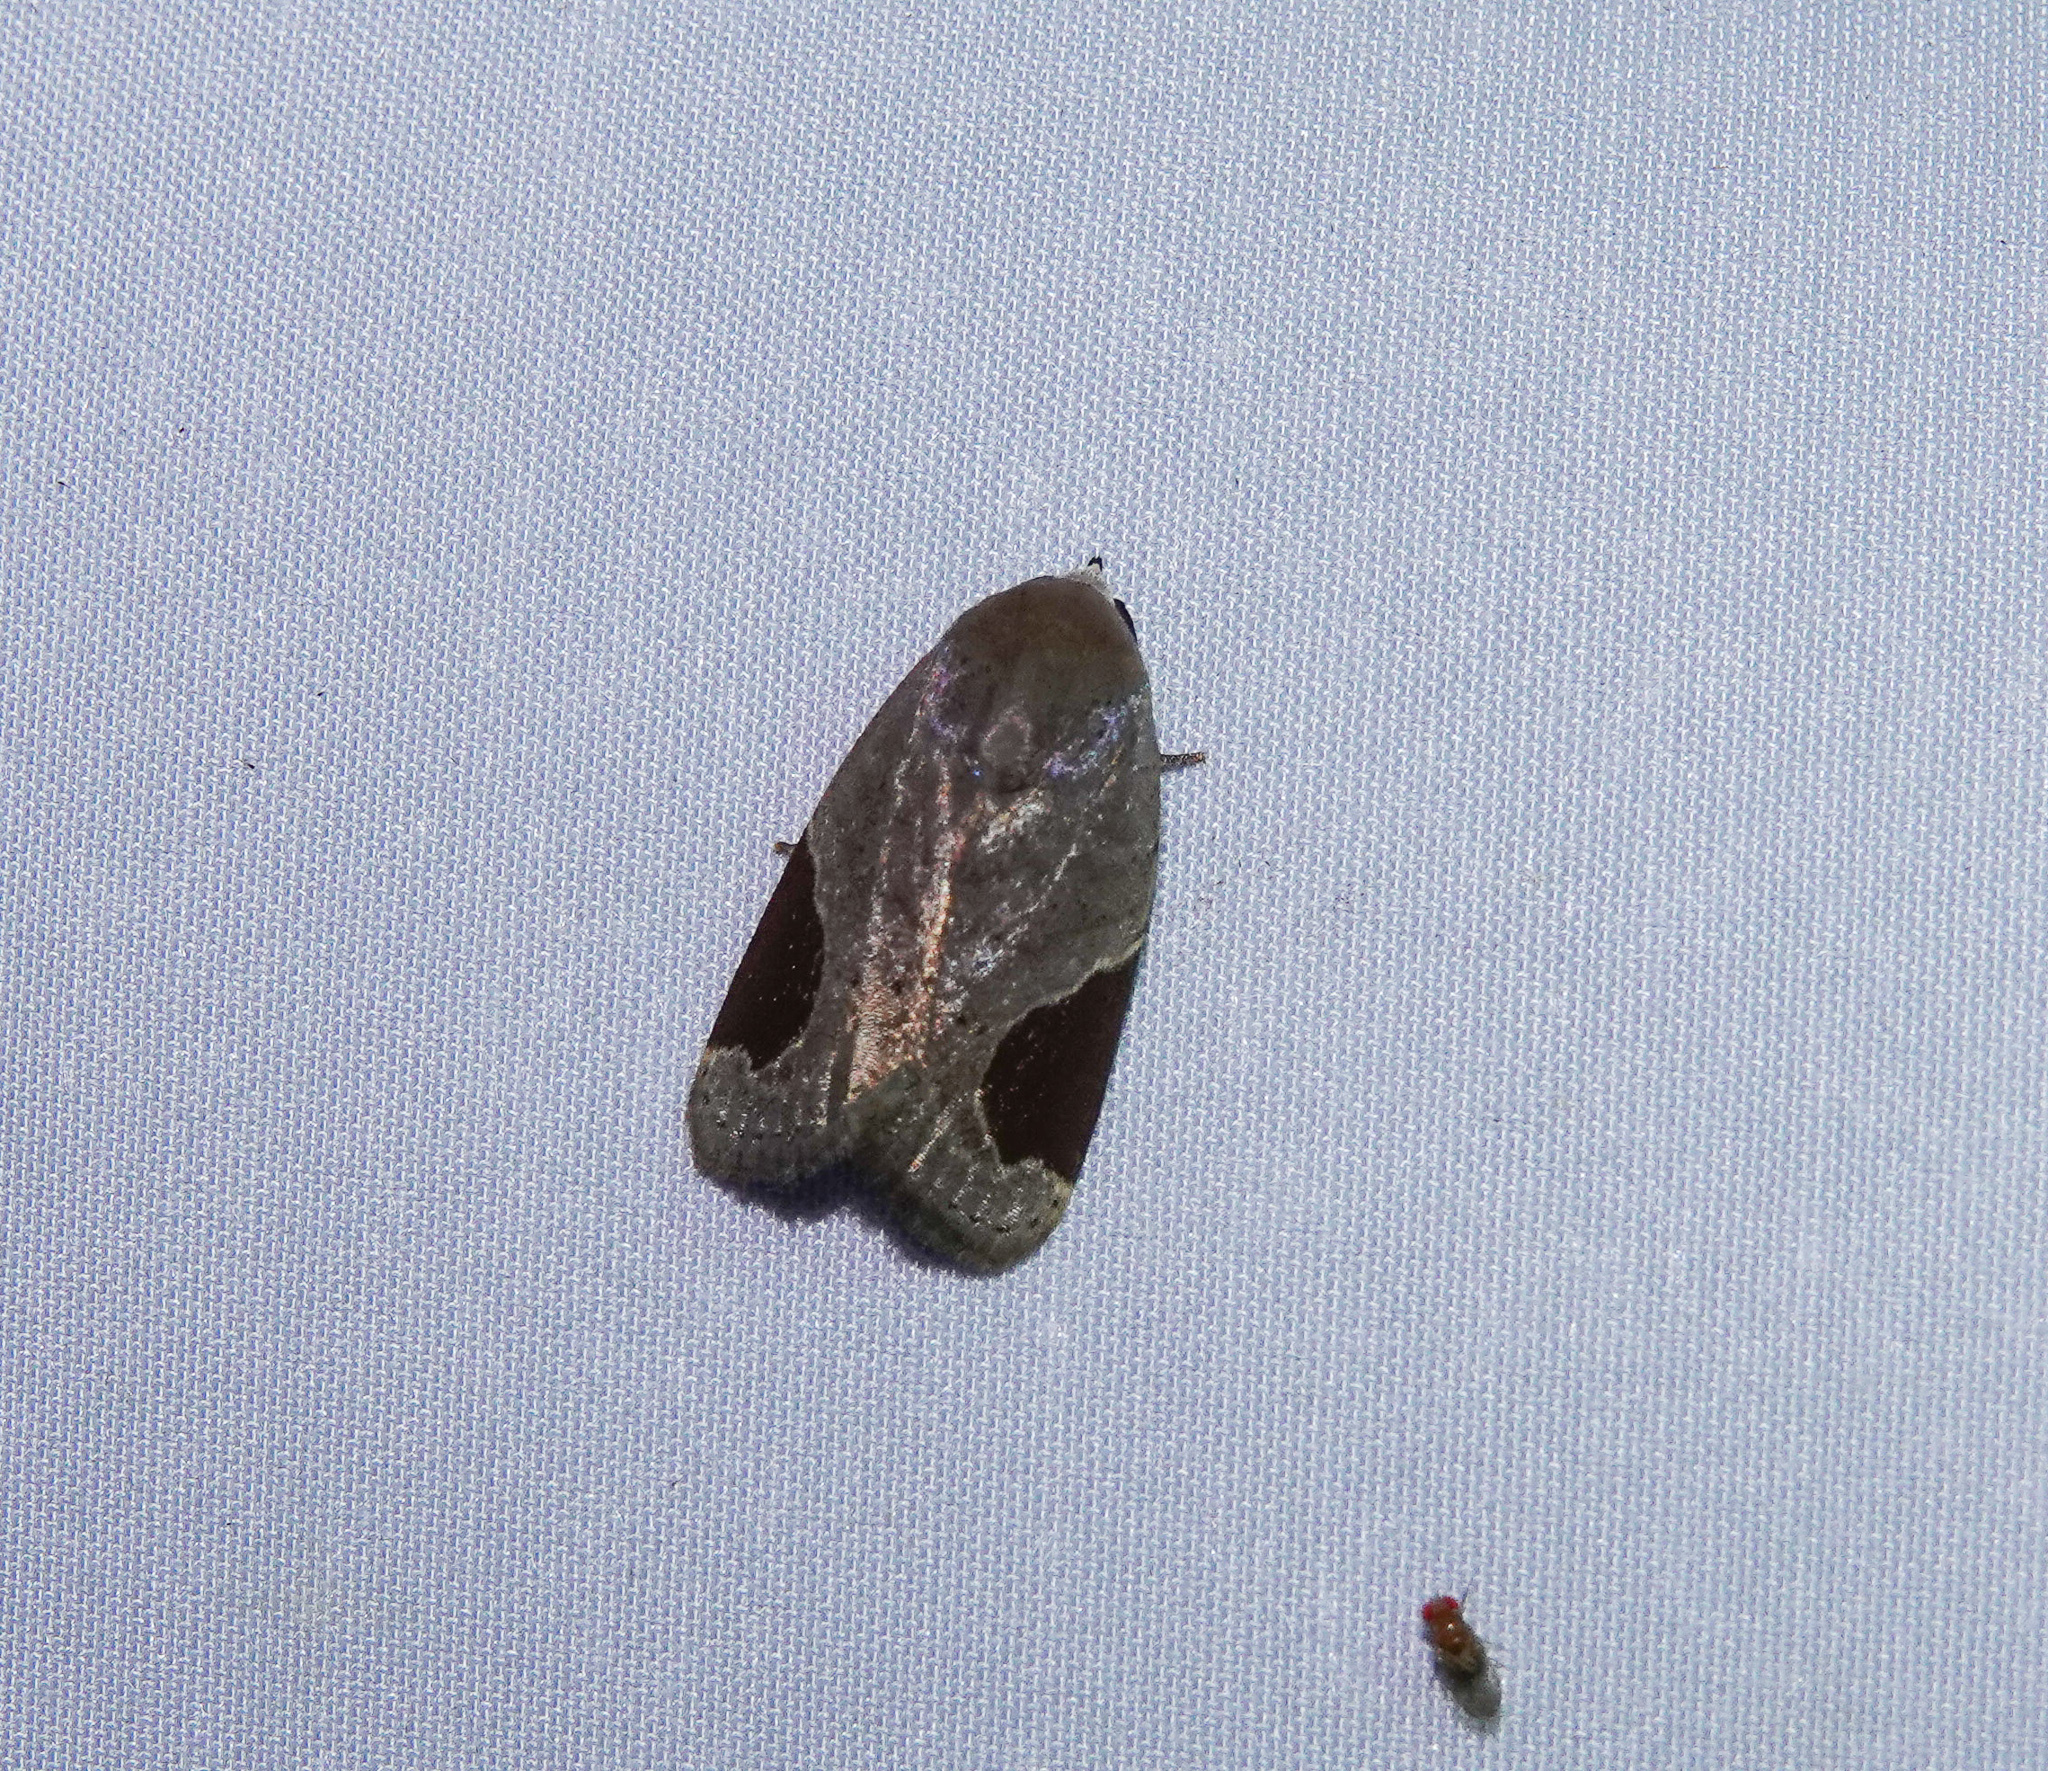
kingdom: Animalia
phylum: Arthropoda
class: Insecta
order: Lepidoptera
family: Noctuidae
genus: Dyrzela
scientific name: Dyrzela plagiata
